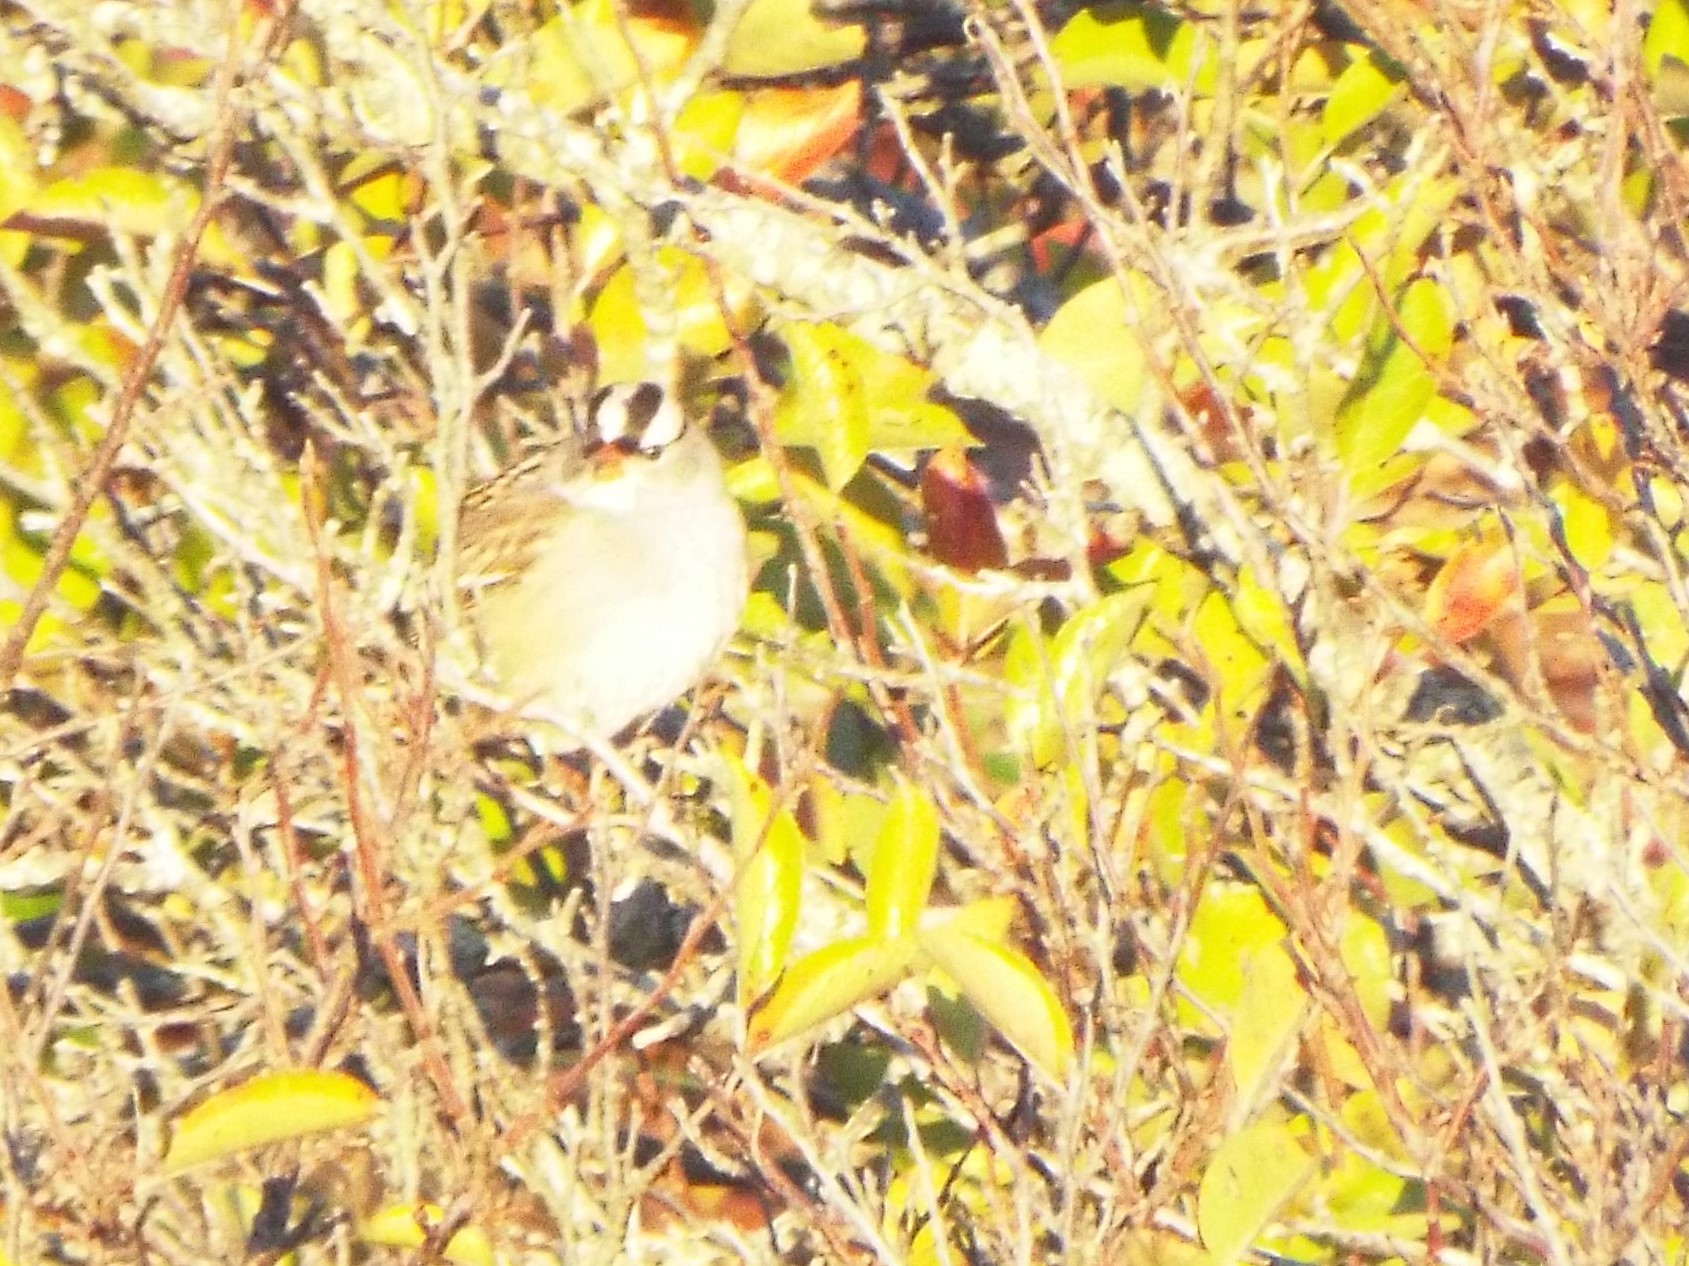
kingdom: Animalia
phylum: Chordata
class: Aves
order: Passeriformes
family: Passerellidae
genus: Zonotrichia
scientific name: Zonotrichia leucophrys
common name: White-crowned sparrow
